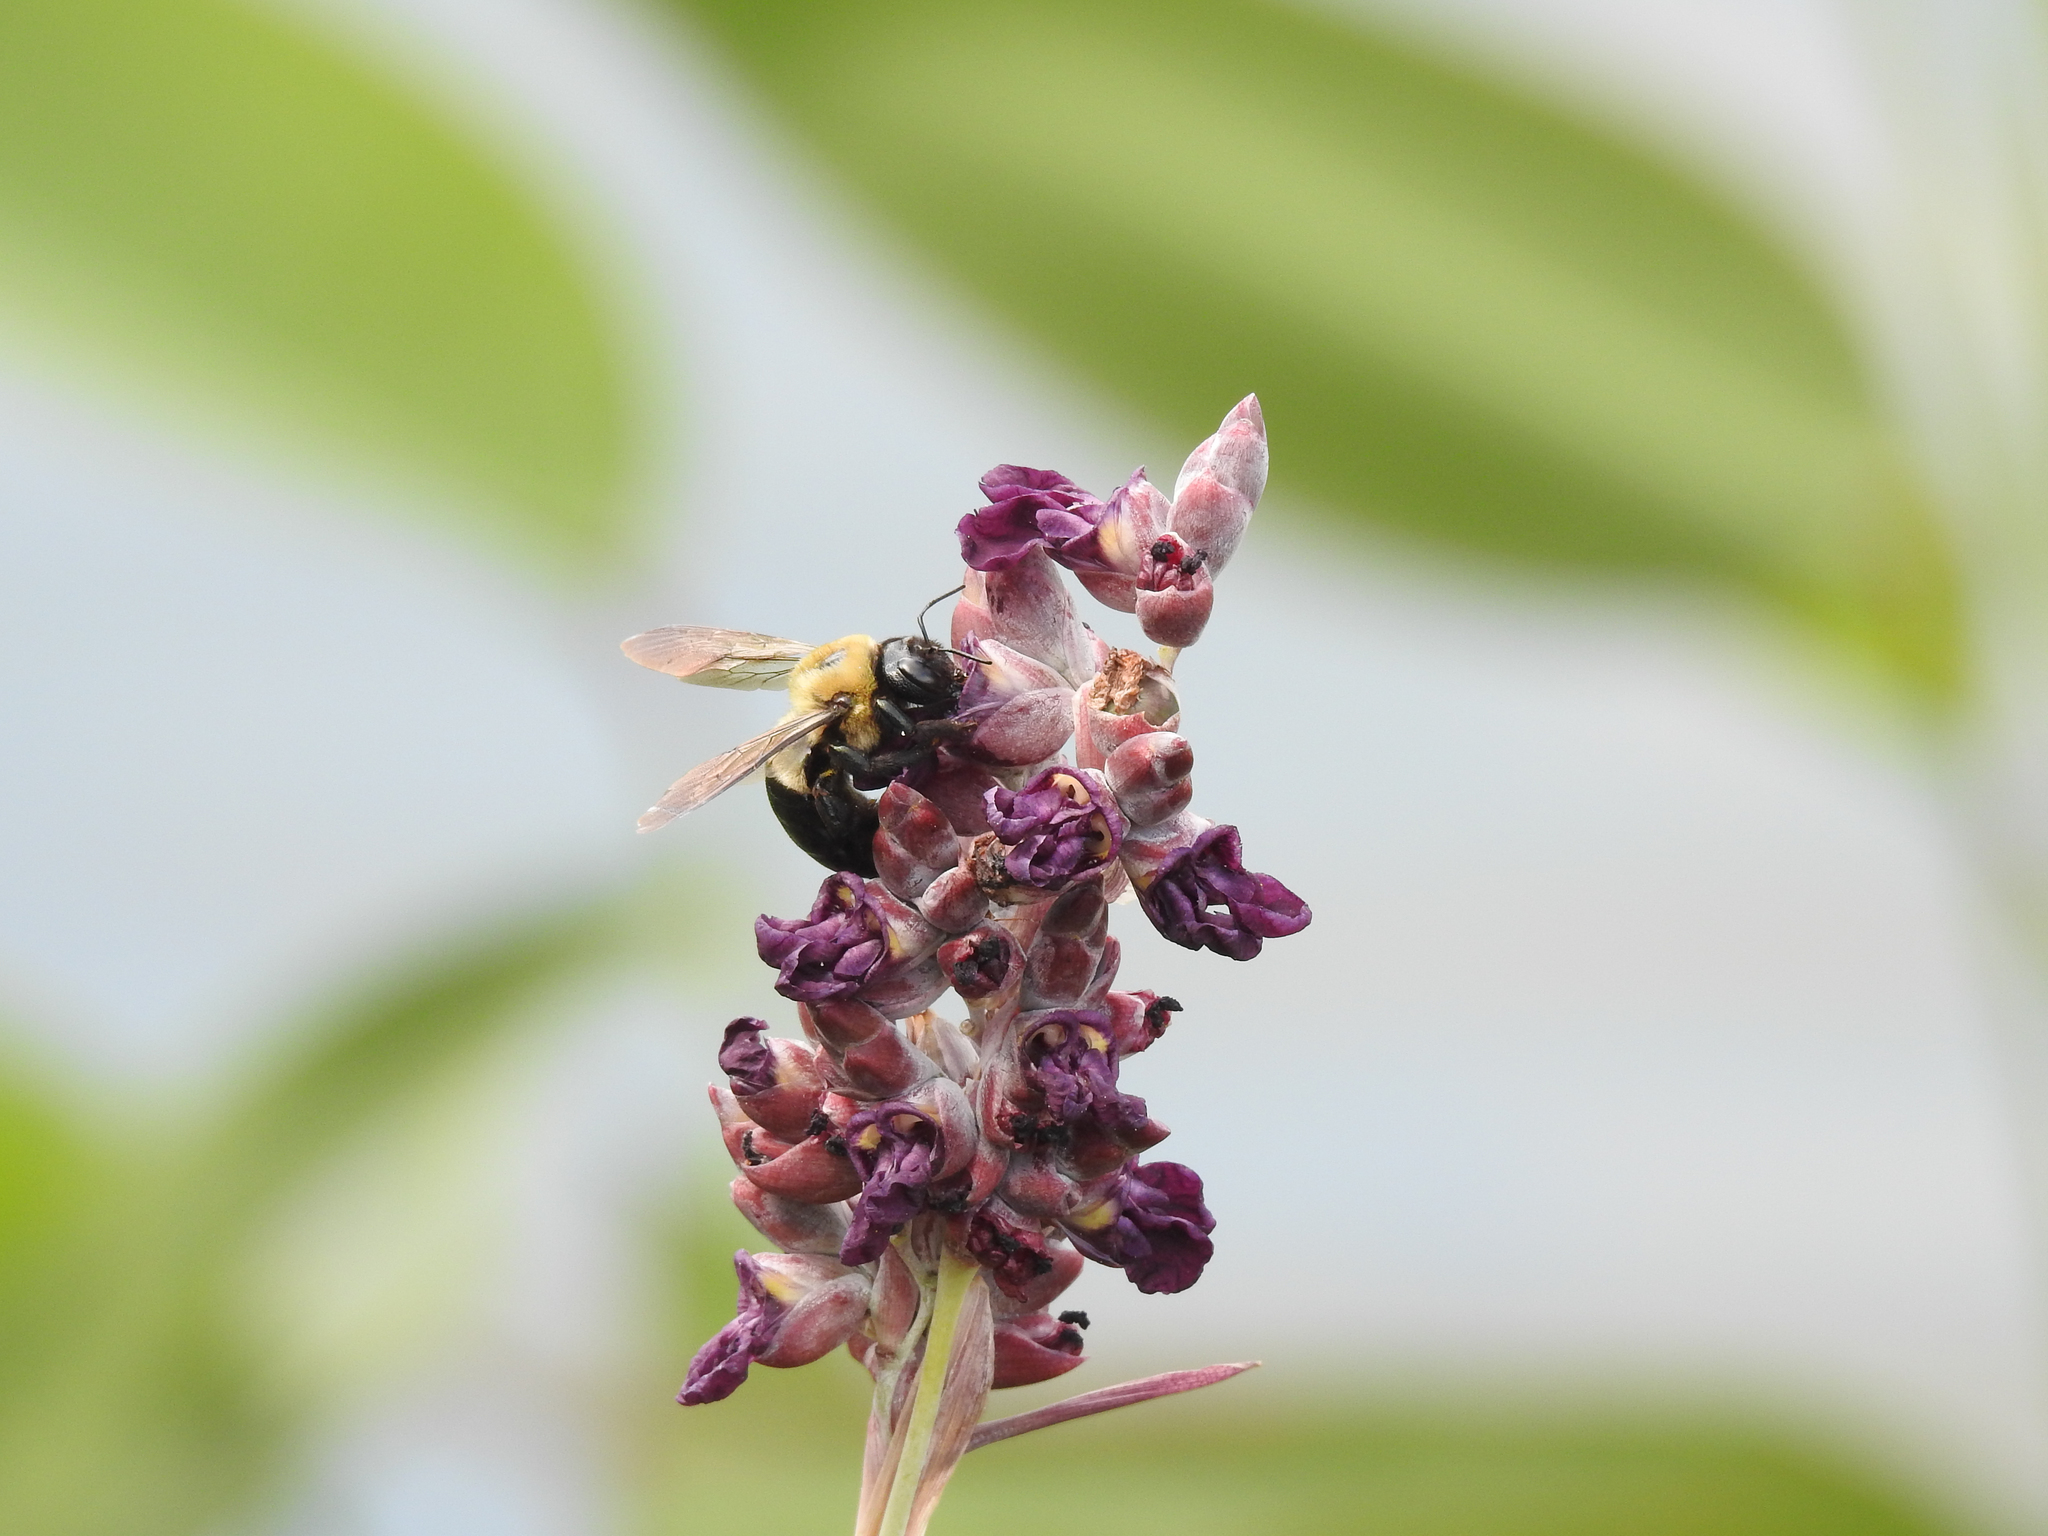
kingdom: Animalia
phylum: Arthropoda
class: Insecta
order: Hymenoptera
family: Apidae
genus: Xylocopa
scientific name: Xylocopa virginica
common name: Carpenter bee
